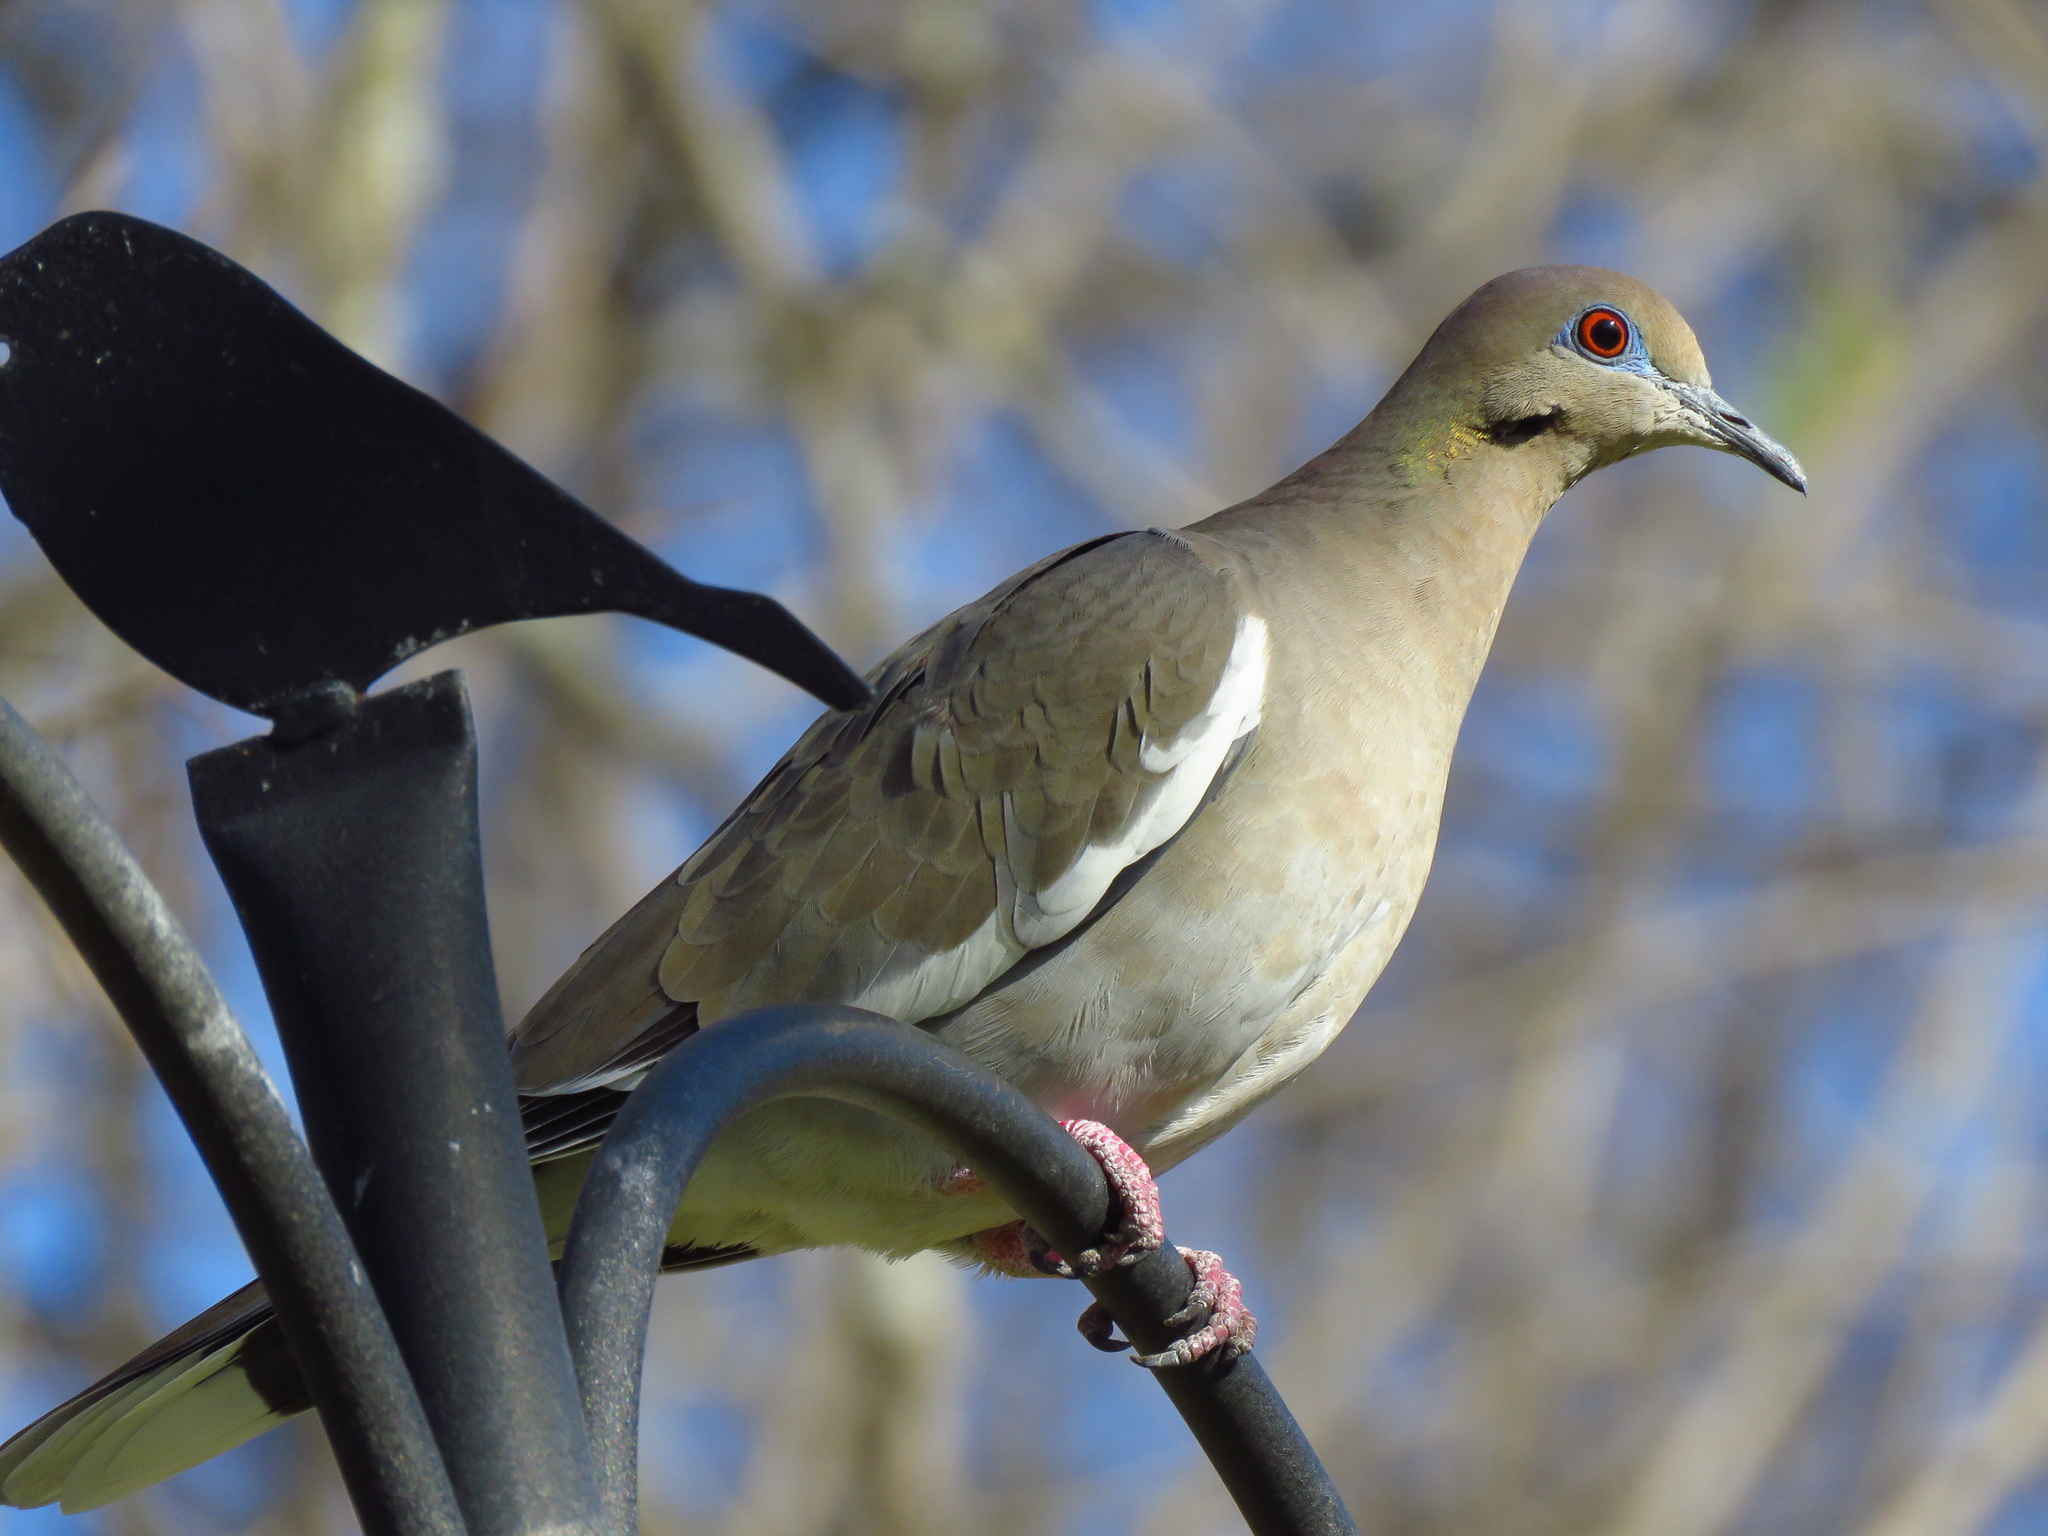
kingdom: Animalia
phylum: Chordata
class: Aves
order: Columbiformes
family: Columbidae
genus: Zenaida
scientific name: Zenaida asiatica
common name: White-winged dove
